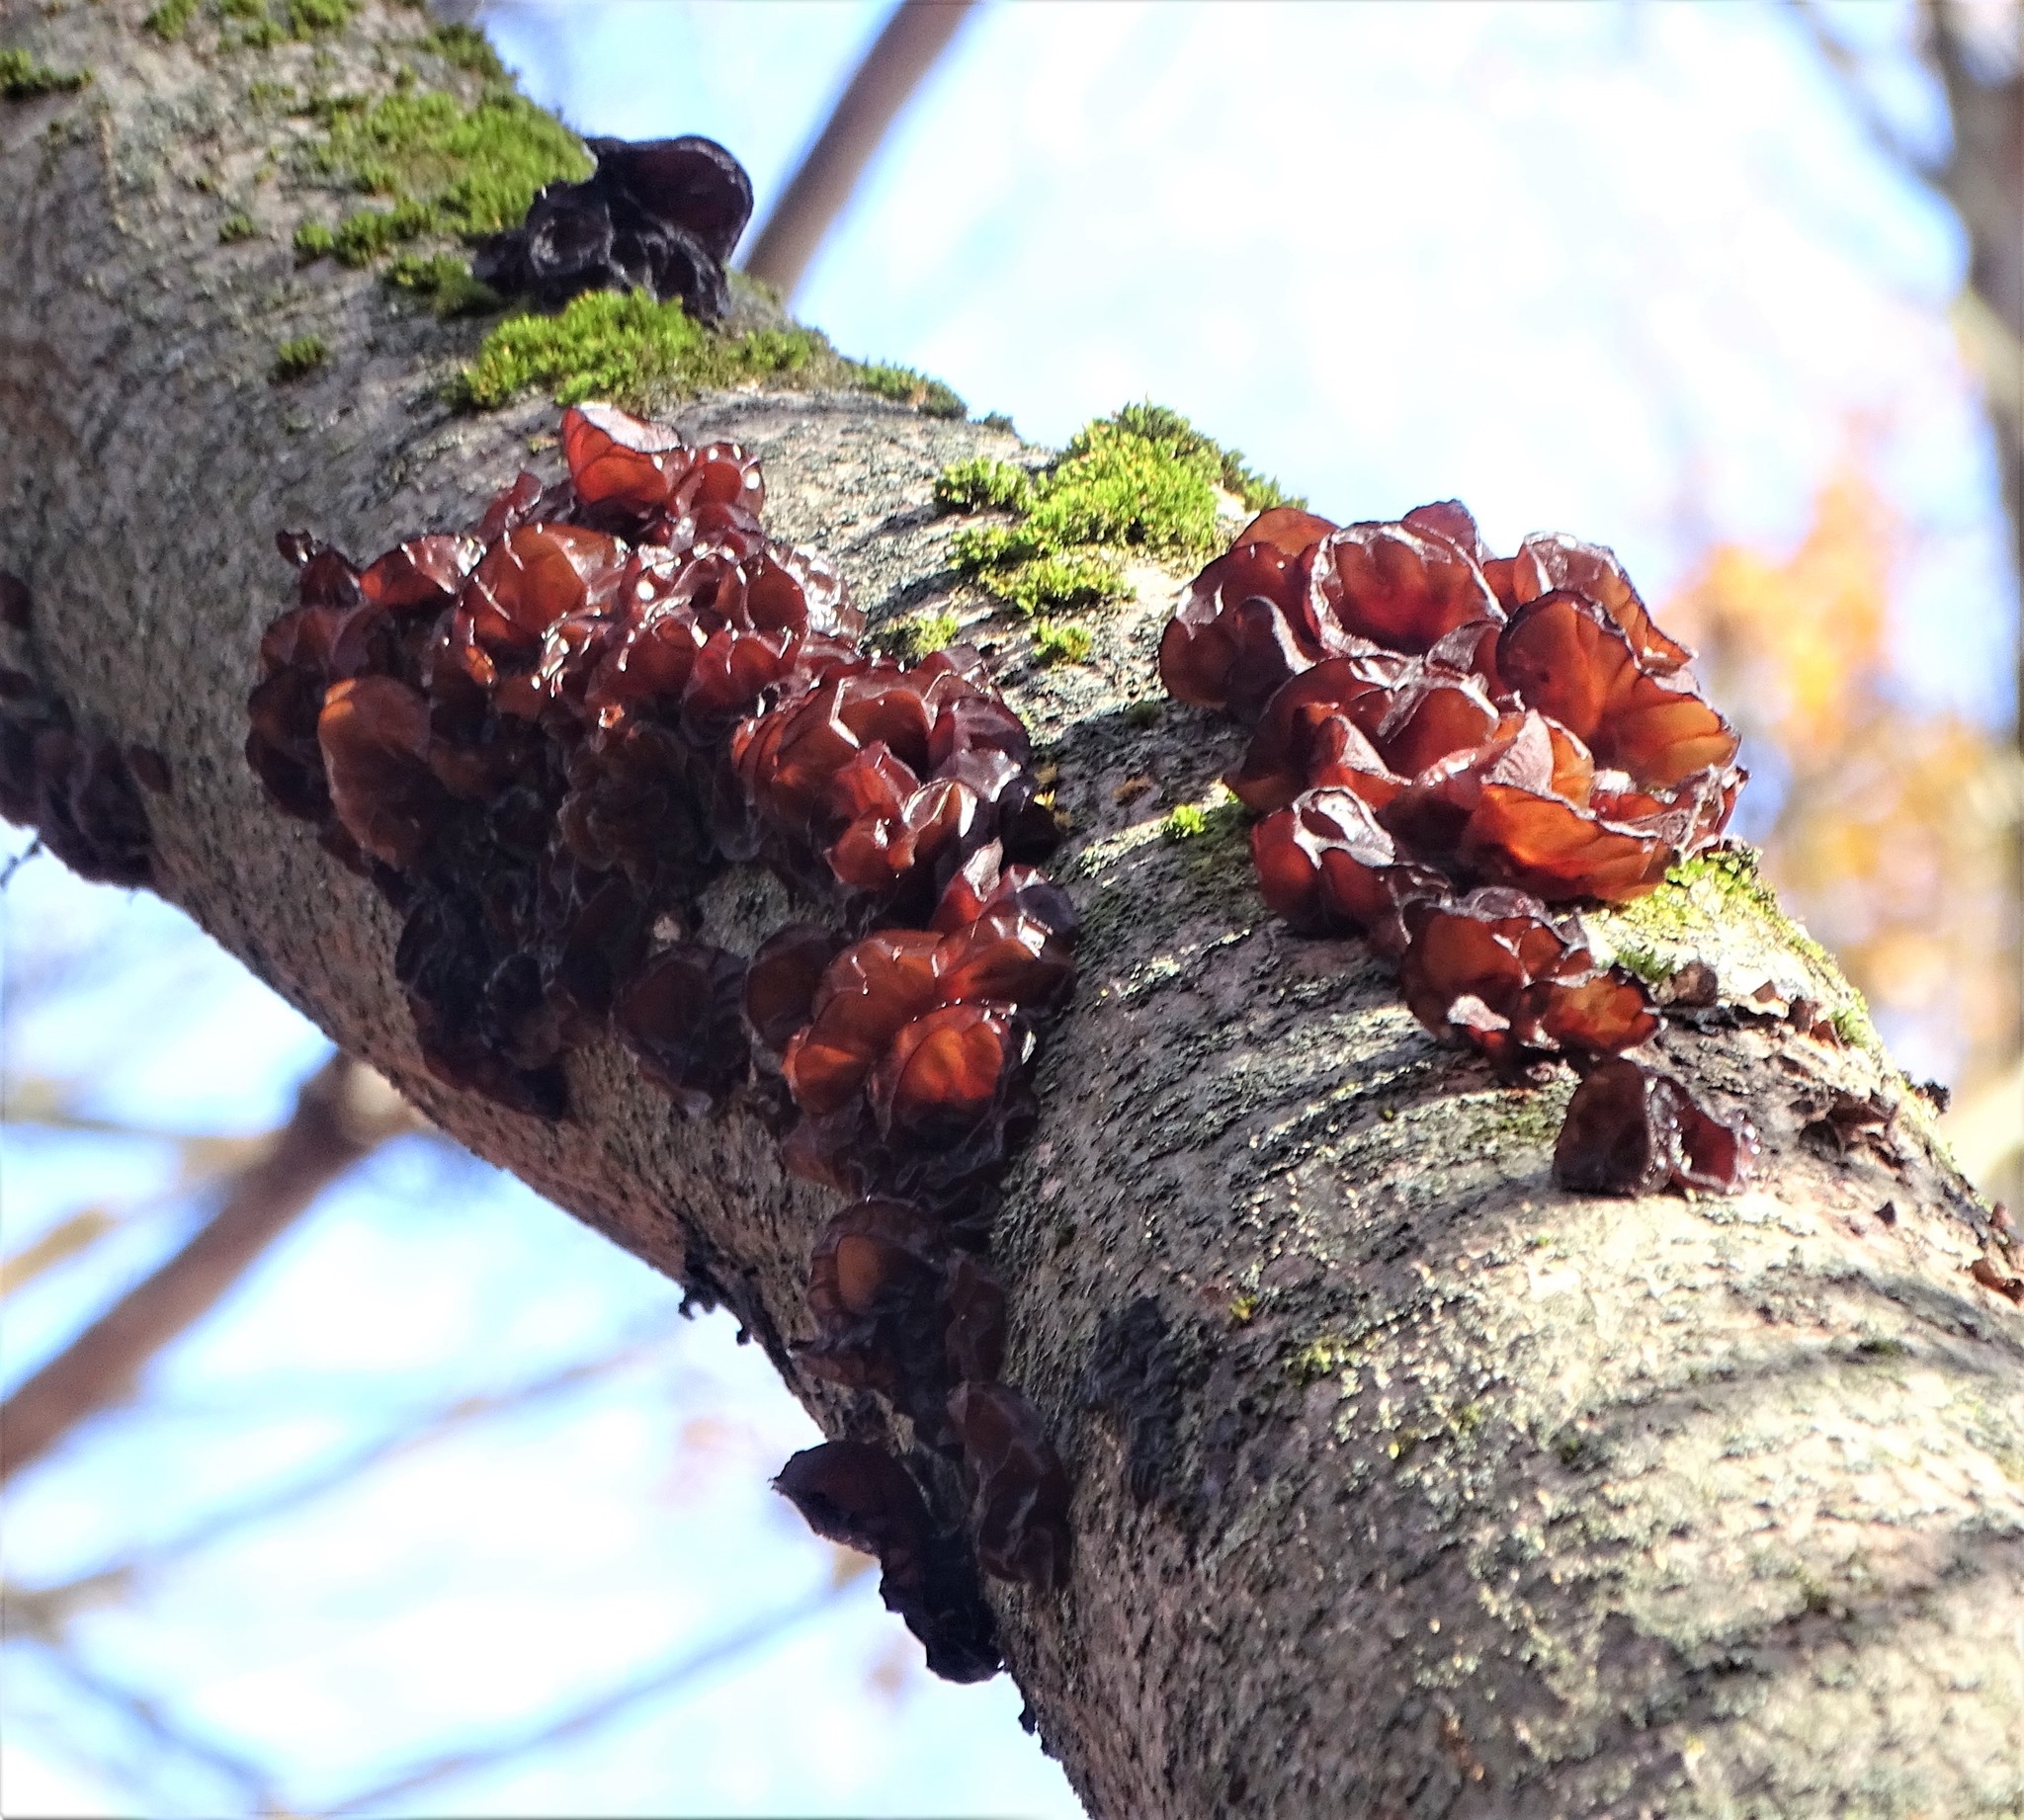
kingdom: Fungi
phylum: Basidiomycota
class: Agaricomycetes
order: Auriculariales
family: Auriculariaceae
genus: Exidia
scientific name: Exidia
